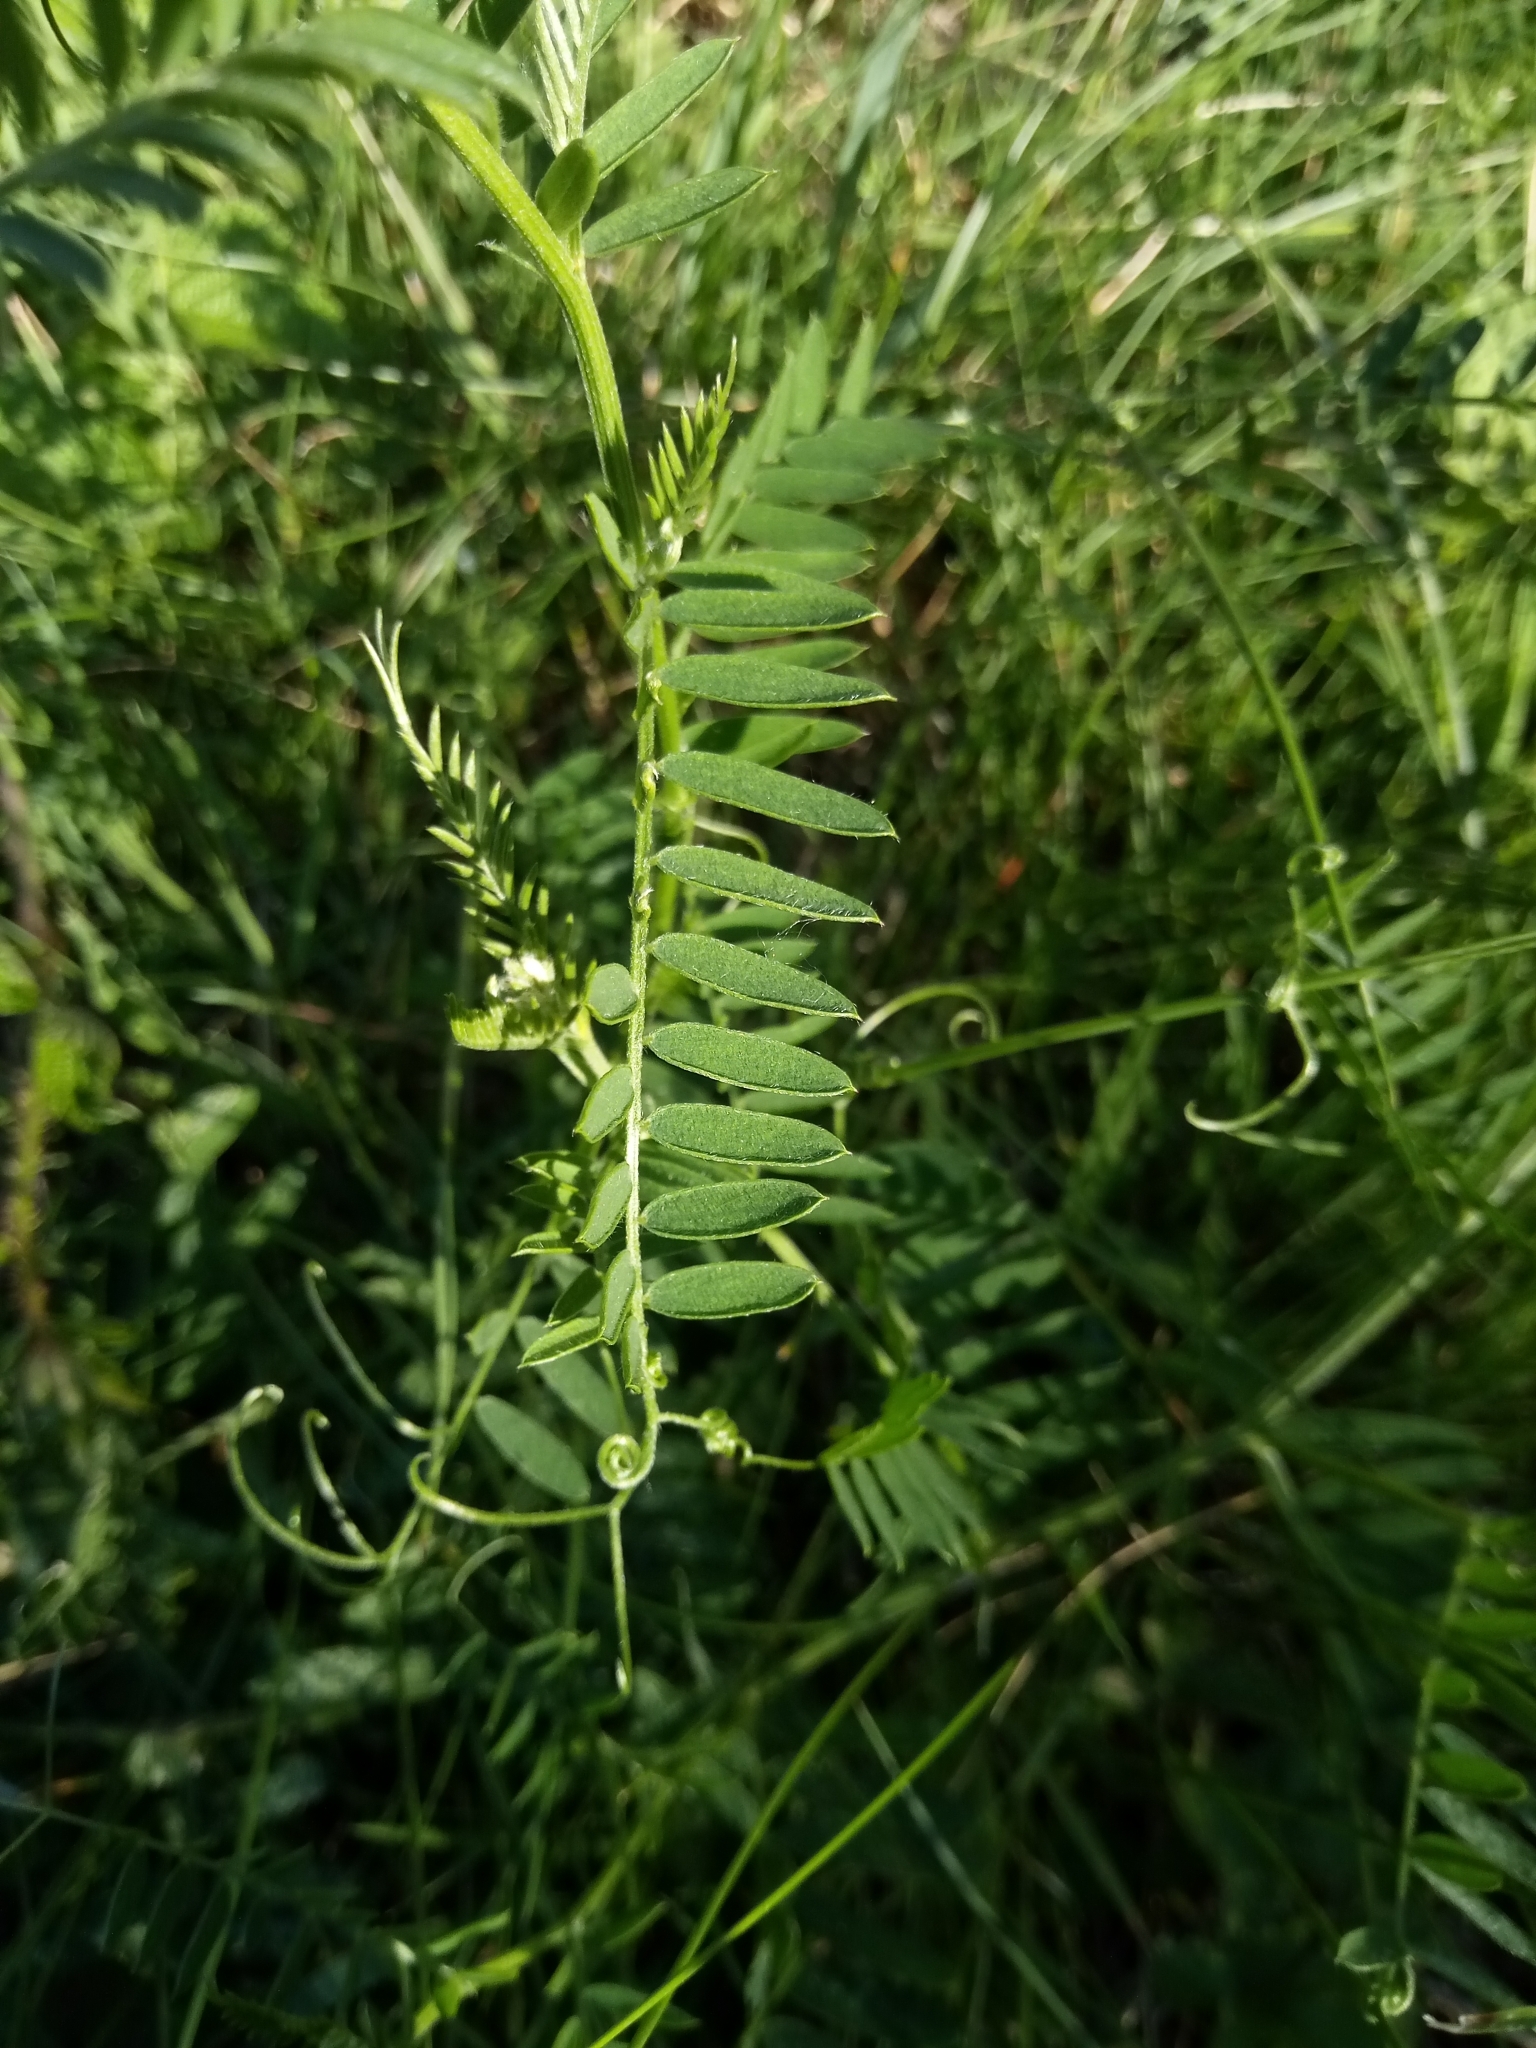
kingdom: Plantae
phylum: Tracheophyta
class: Magnoliopsida
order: Fabales
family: Fabaceae
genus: Vicia
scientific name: Vicia cracca
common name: Bird vetch
